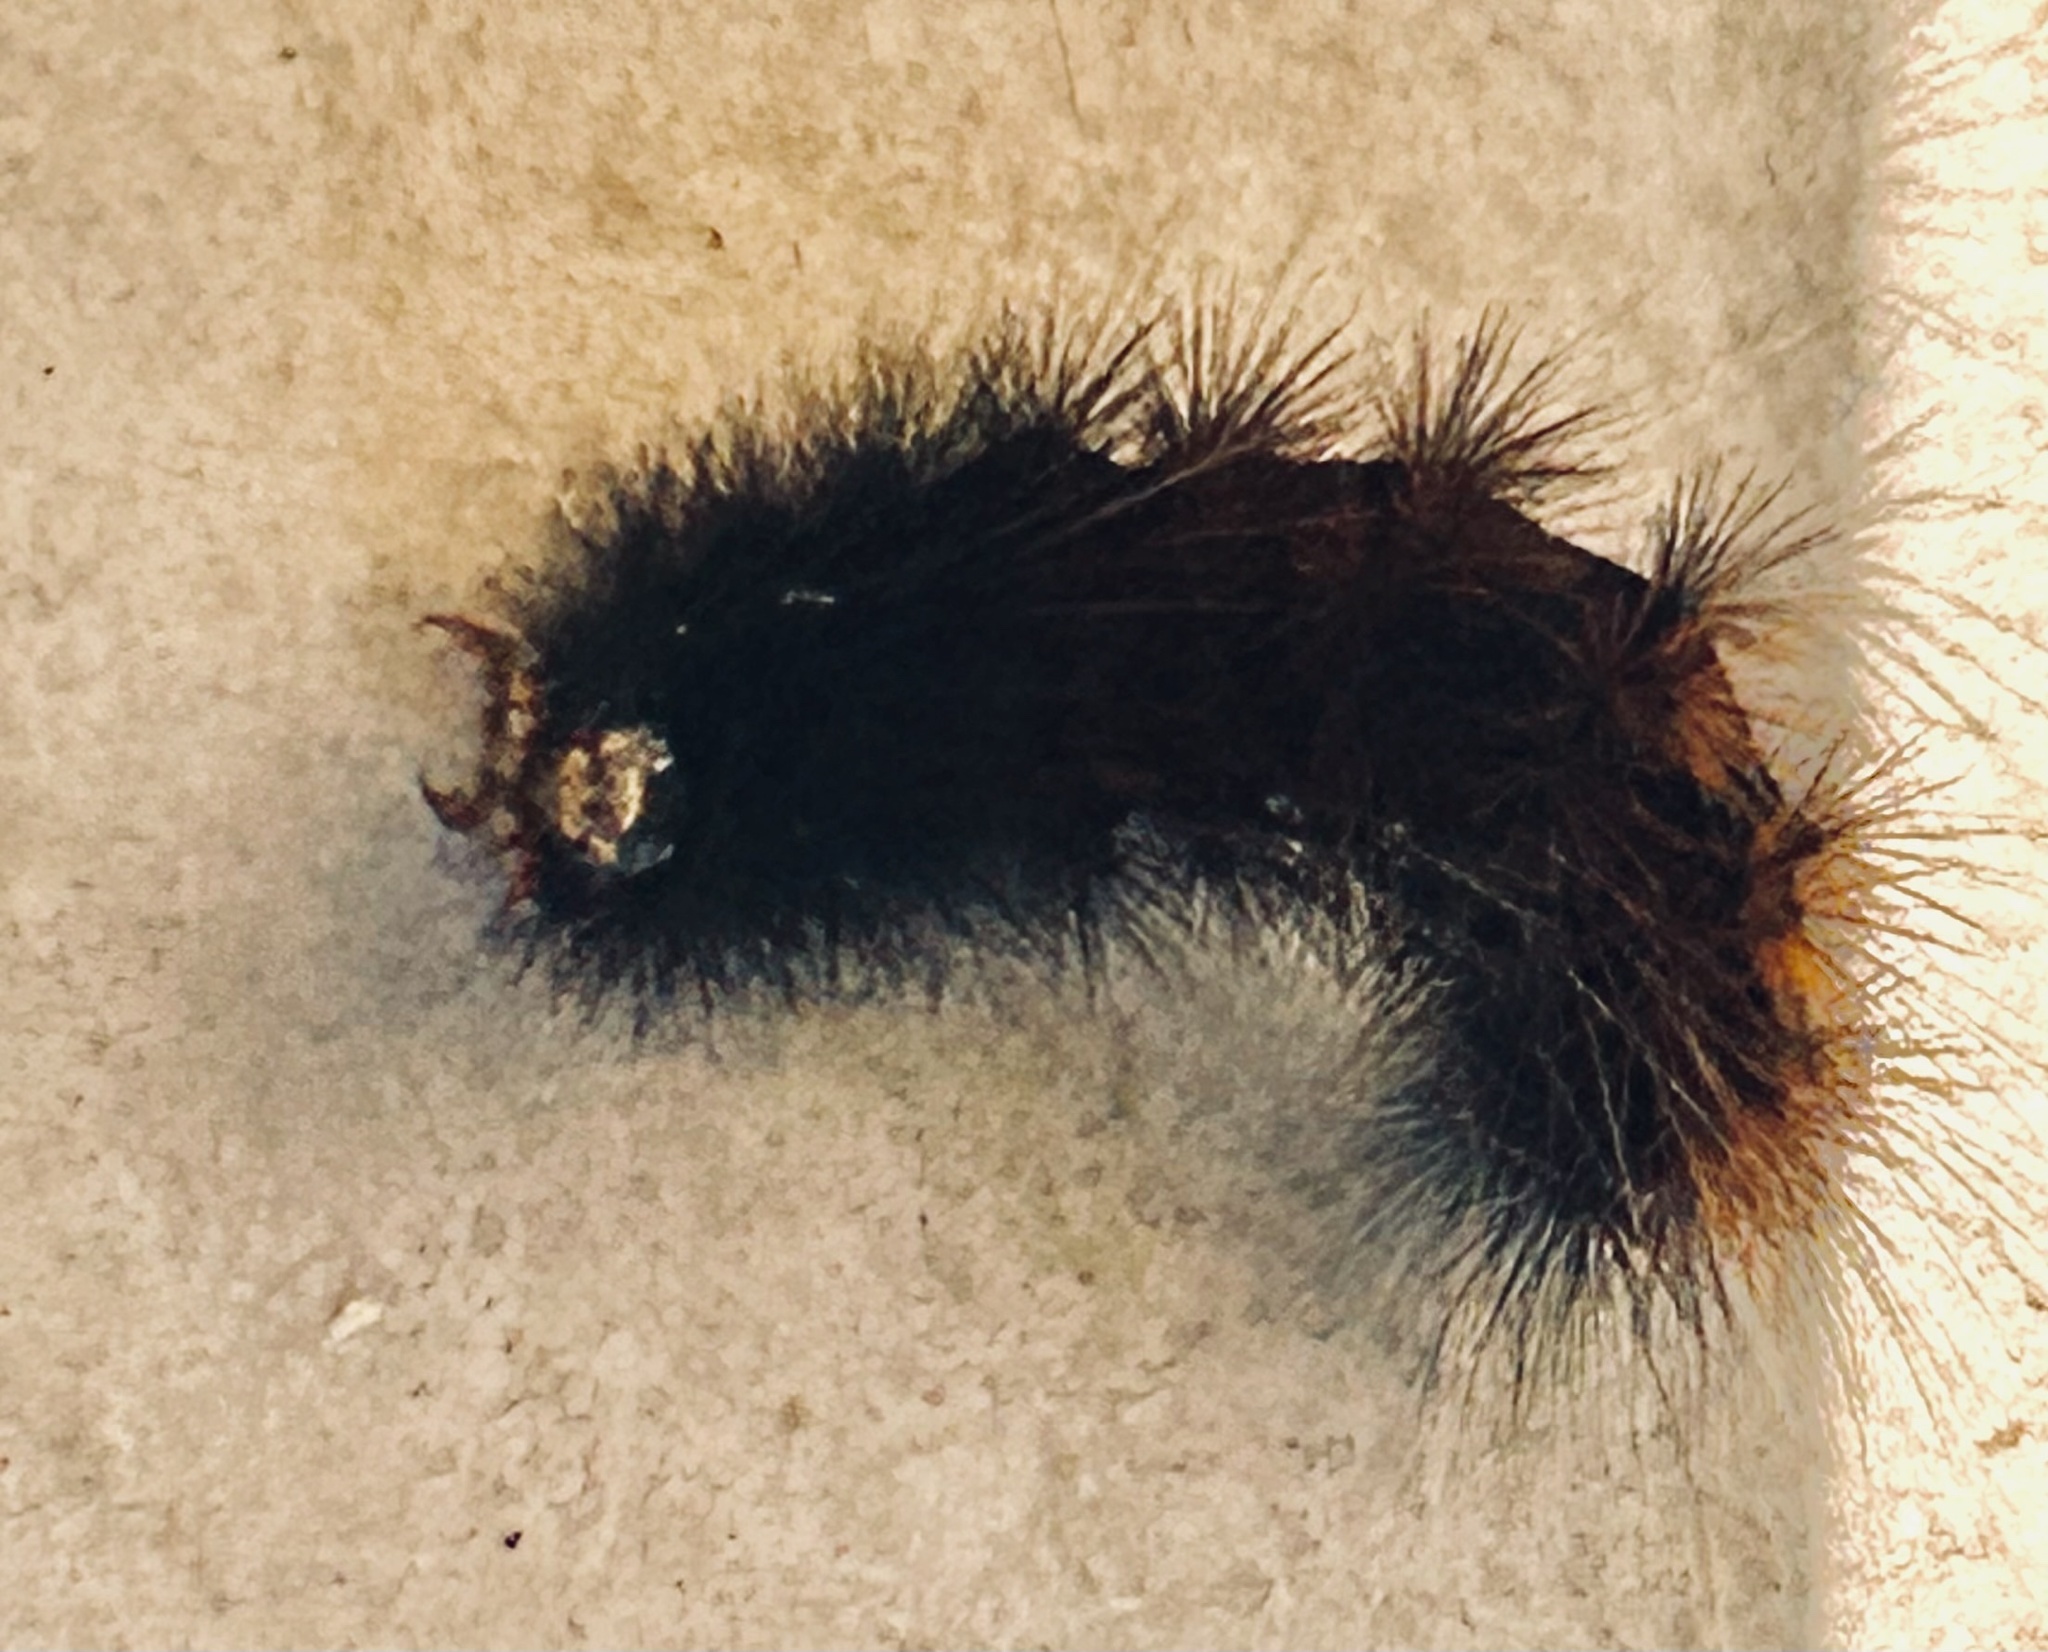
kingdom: Animalia
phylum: Arthropoda
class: Insecta
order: Lepidoptera
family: Erebidae
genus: Rhodogastria
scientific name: Rhodogastria amasis
